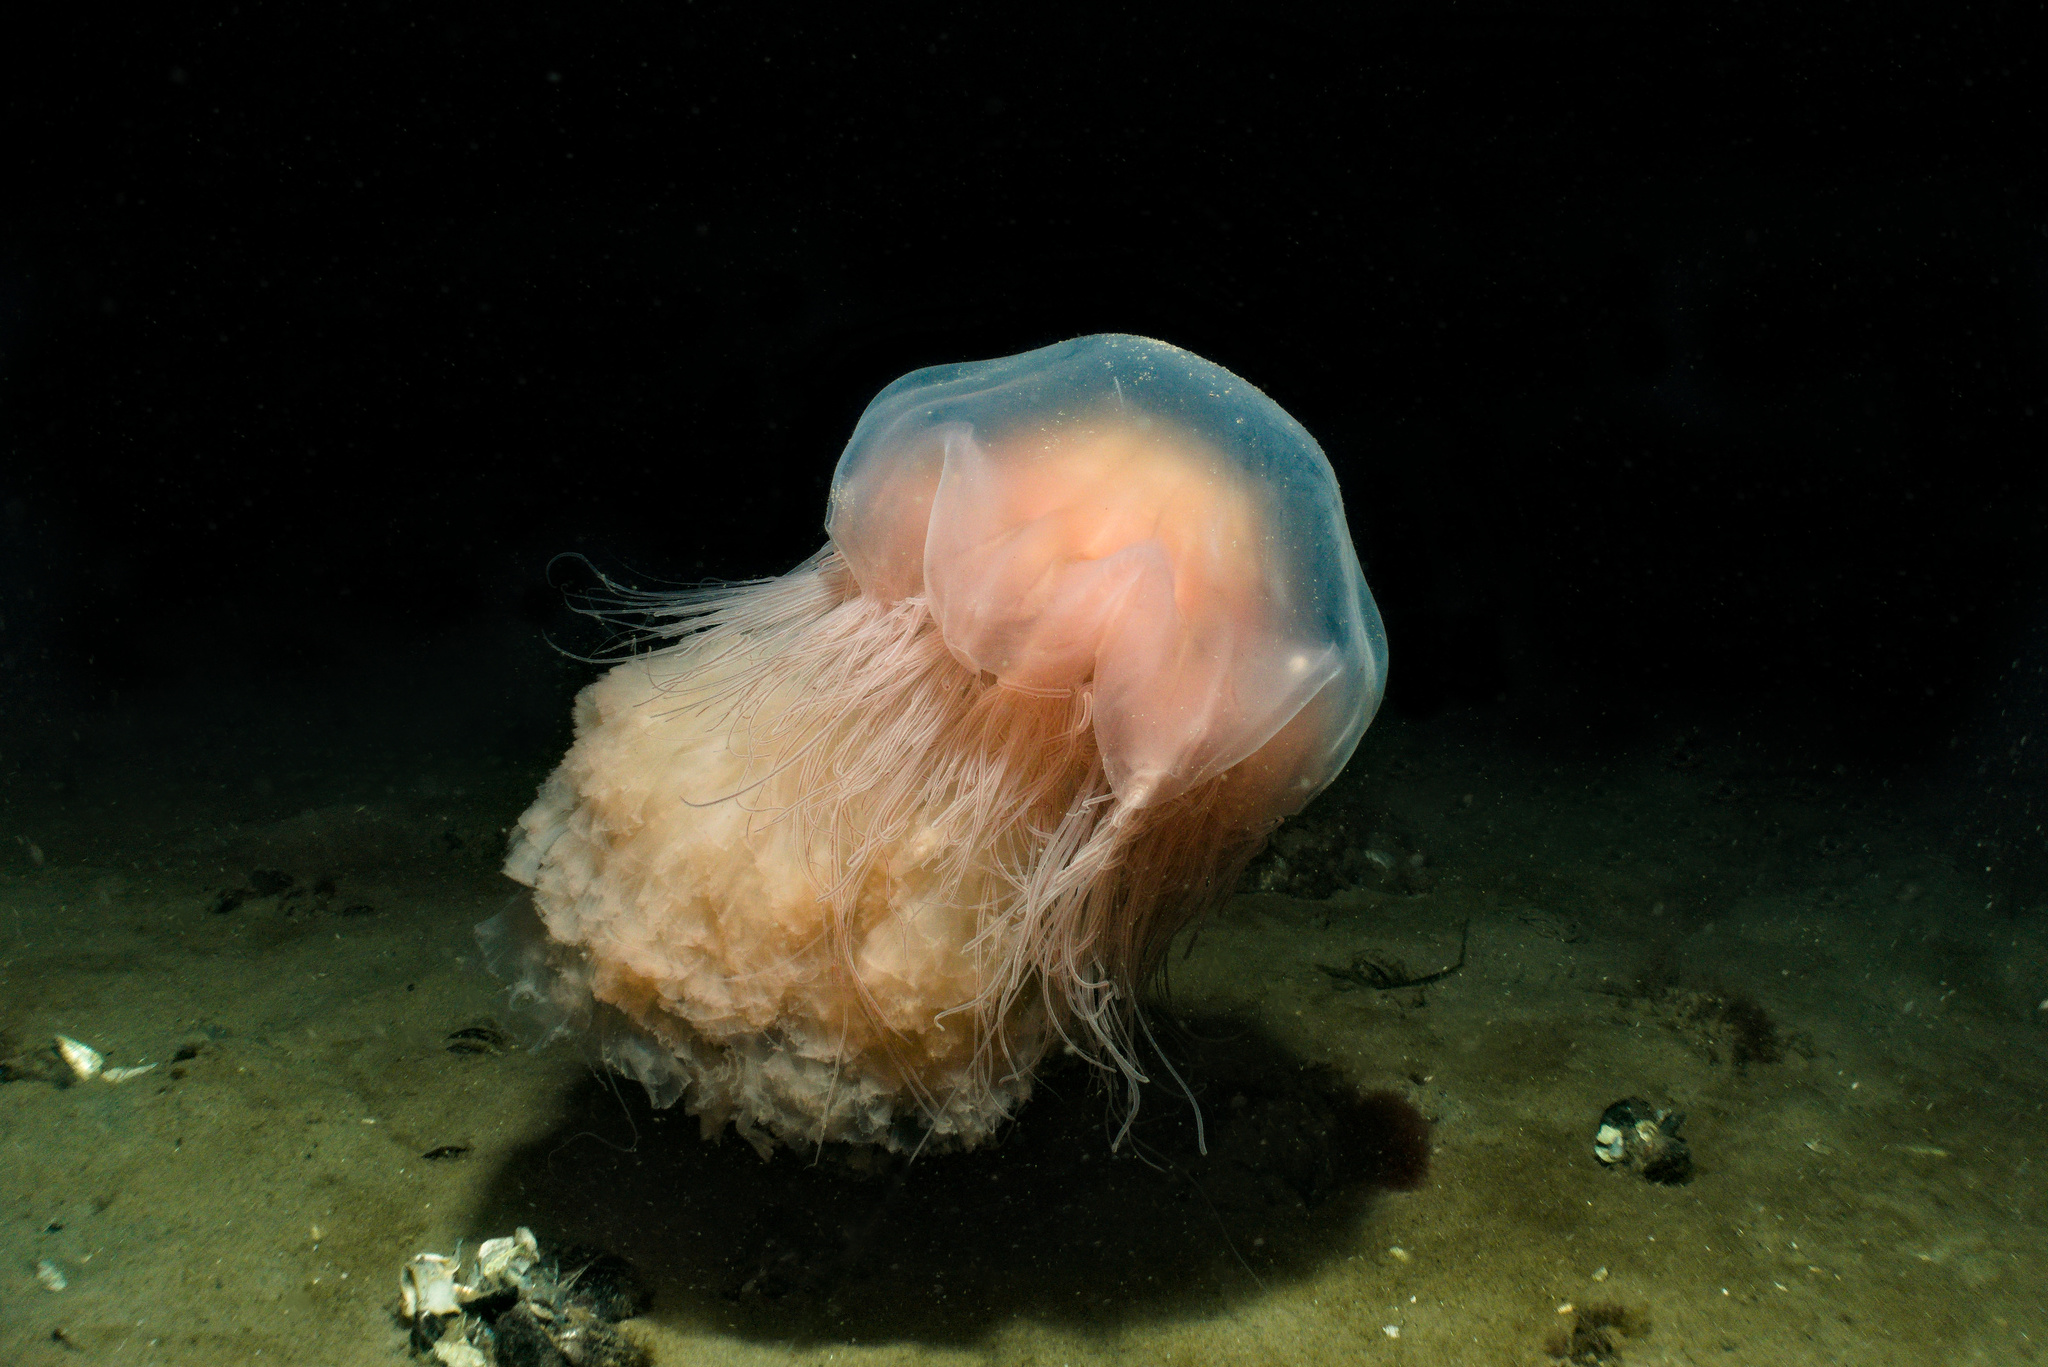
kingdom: Animalia
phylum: Cnidaria
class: Scyphozoa
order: Semaeostomeae
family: Cyaneidae
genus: Cyanea
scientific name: Cyanea capillata
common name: Lion's mane jellyfish
